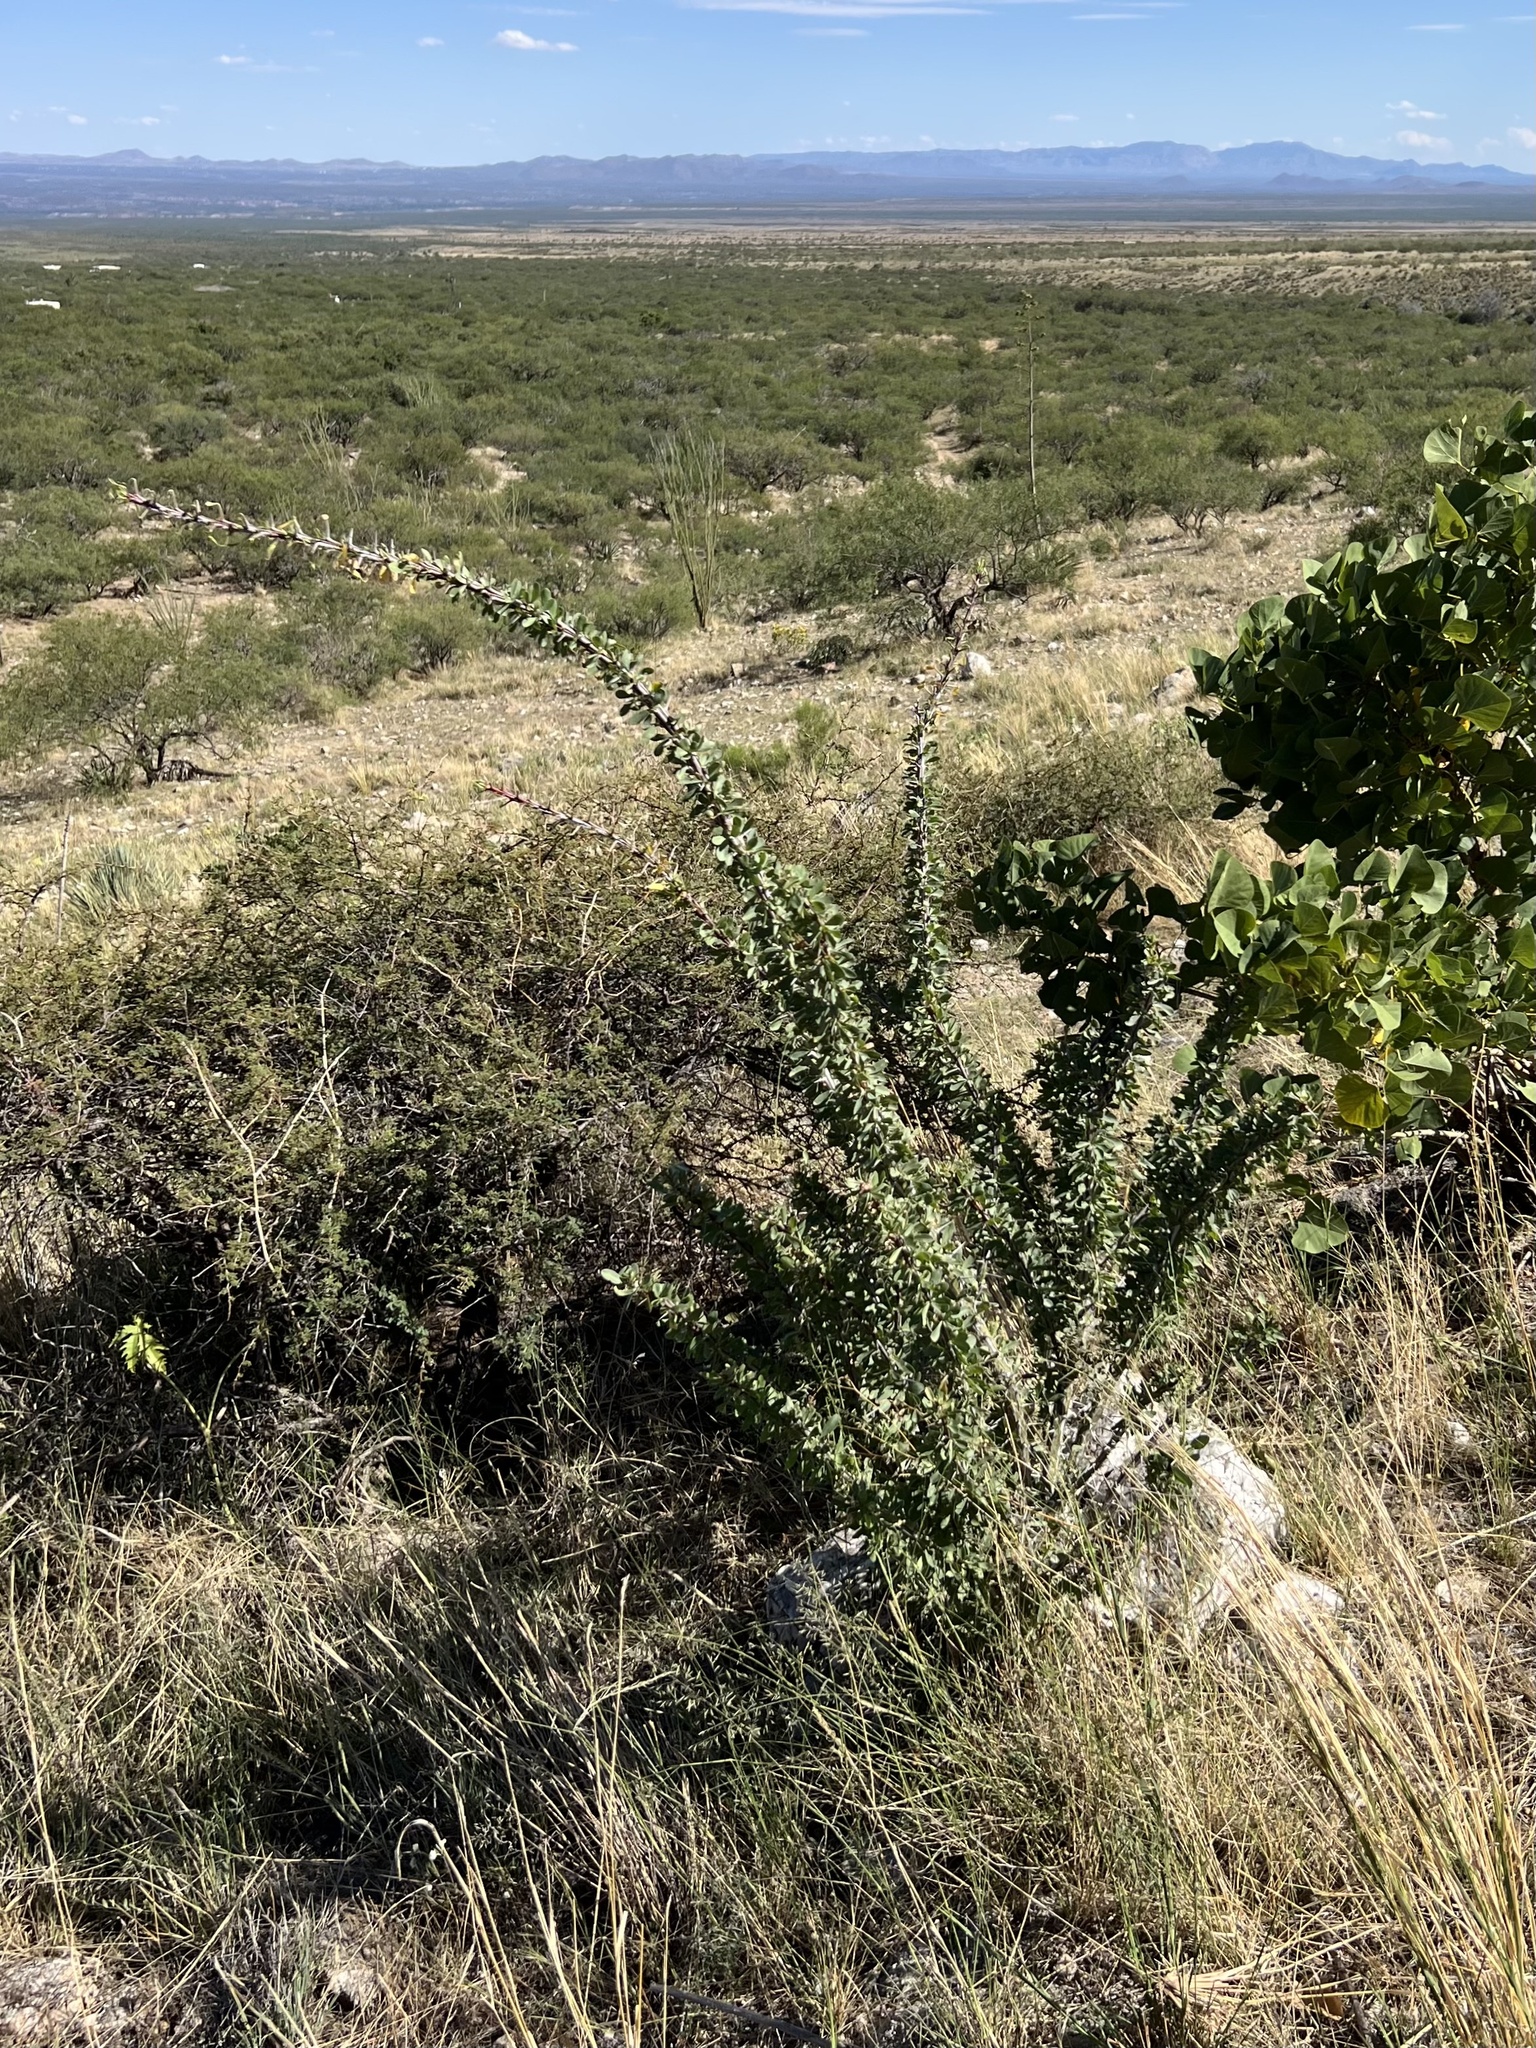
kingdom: Plantae
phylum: Tracheophyta
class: Magnoliopsida
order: Ericales
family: Fouquieriaceae
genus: Fouquieria
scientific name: Fouquieria splendens
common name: Vine-cactus
